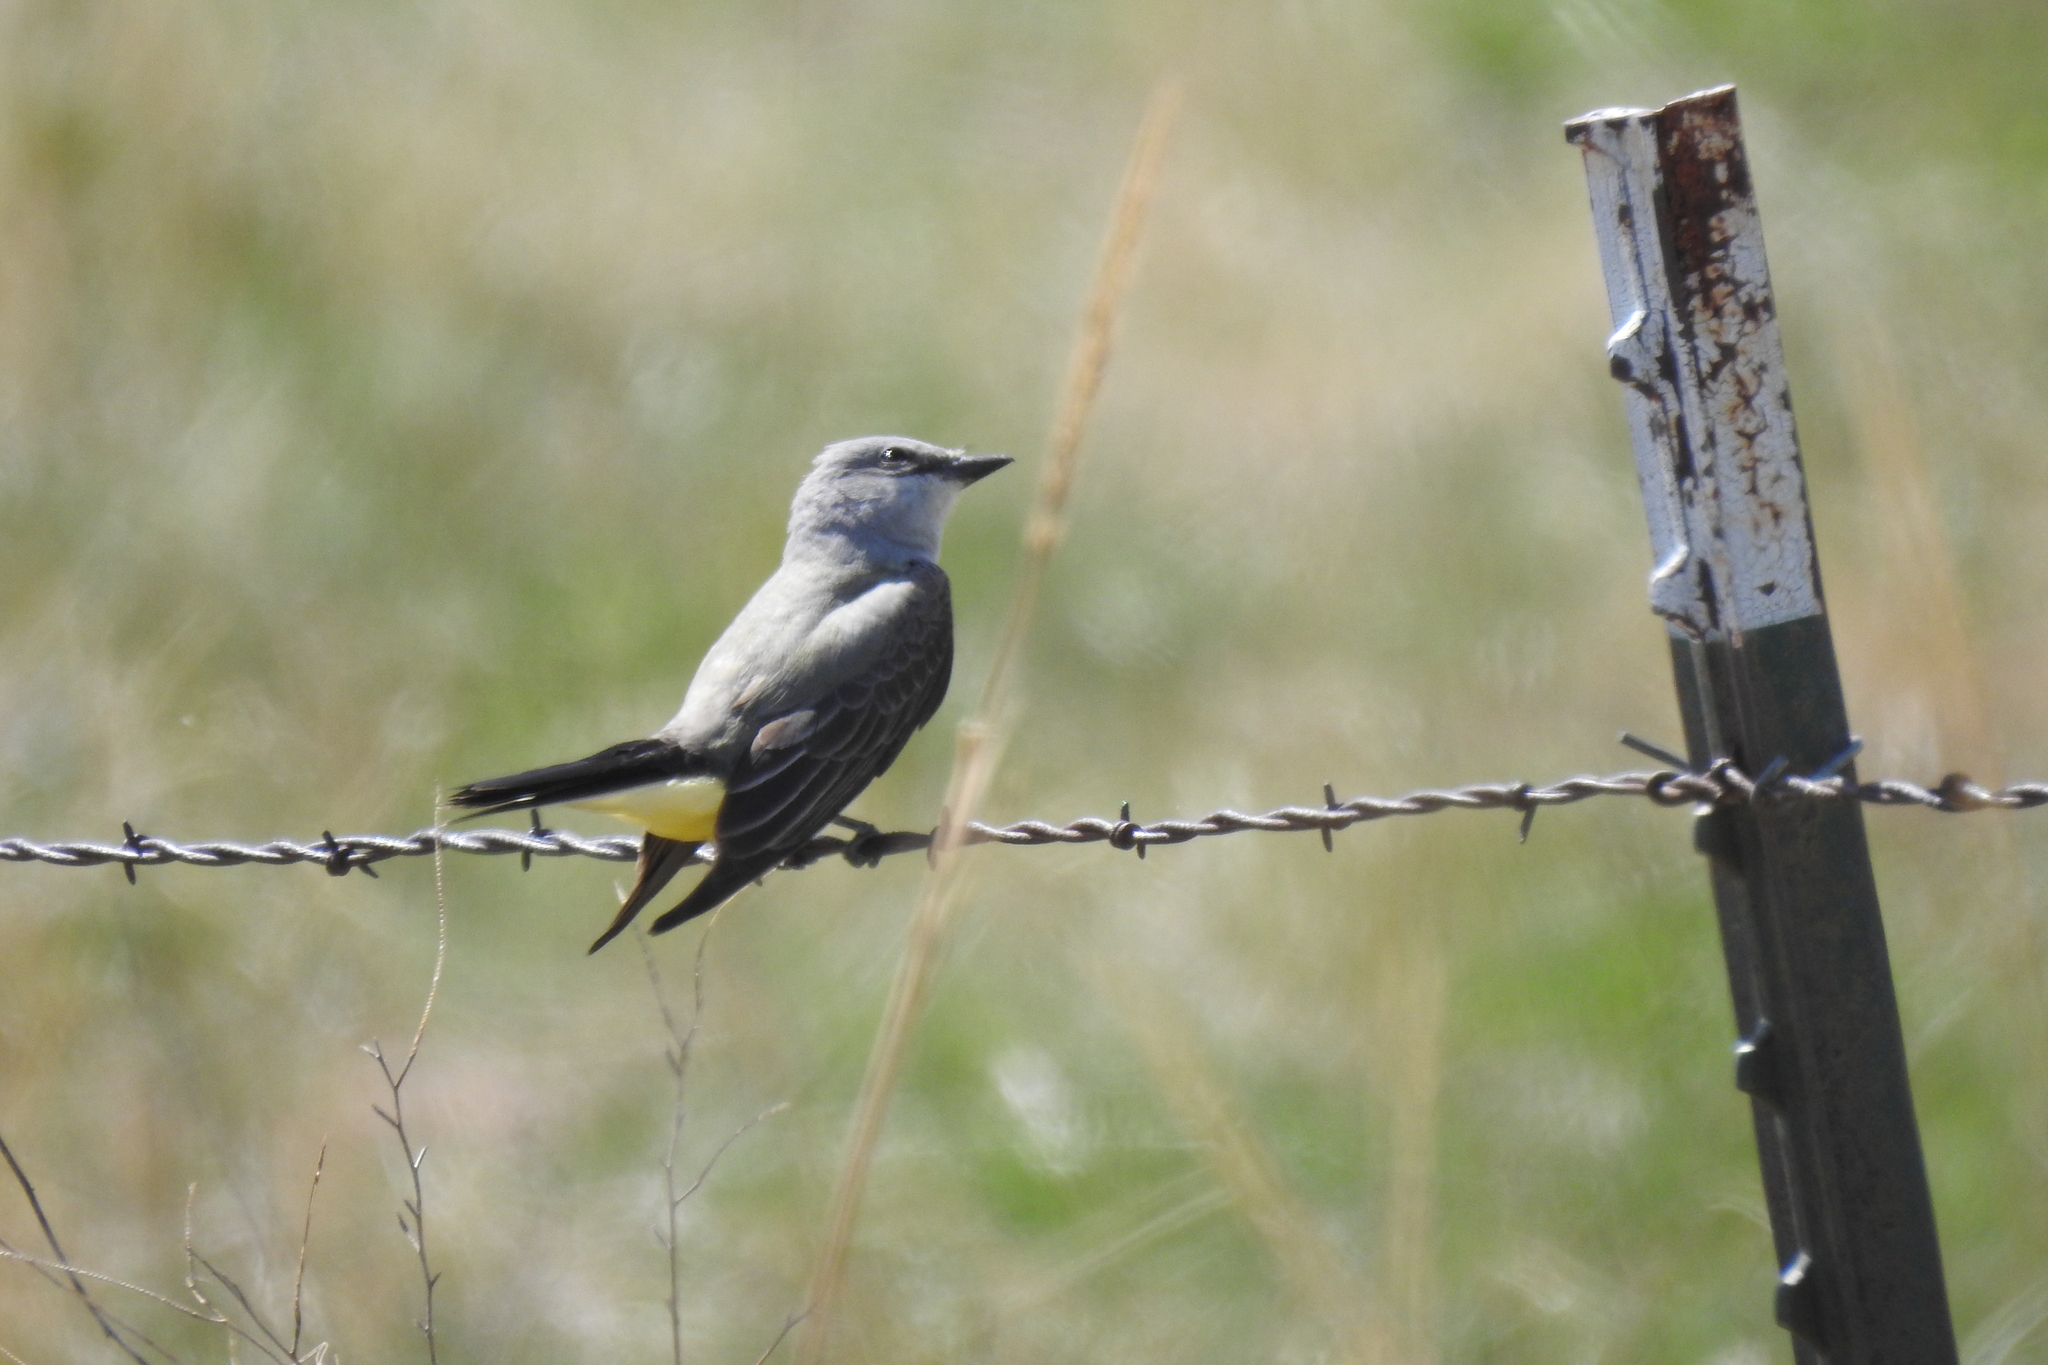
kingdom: Animalia
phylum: Chordata
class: Aves
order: Passeriformes
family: Tyrannidae
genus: Tyrannus
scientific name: Tyrannus verticalis
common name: Western kingbird
